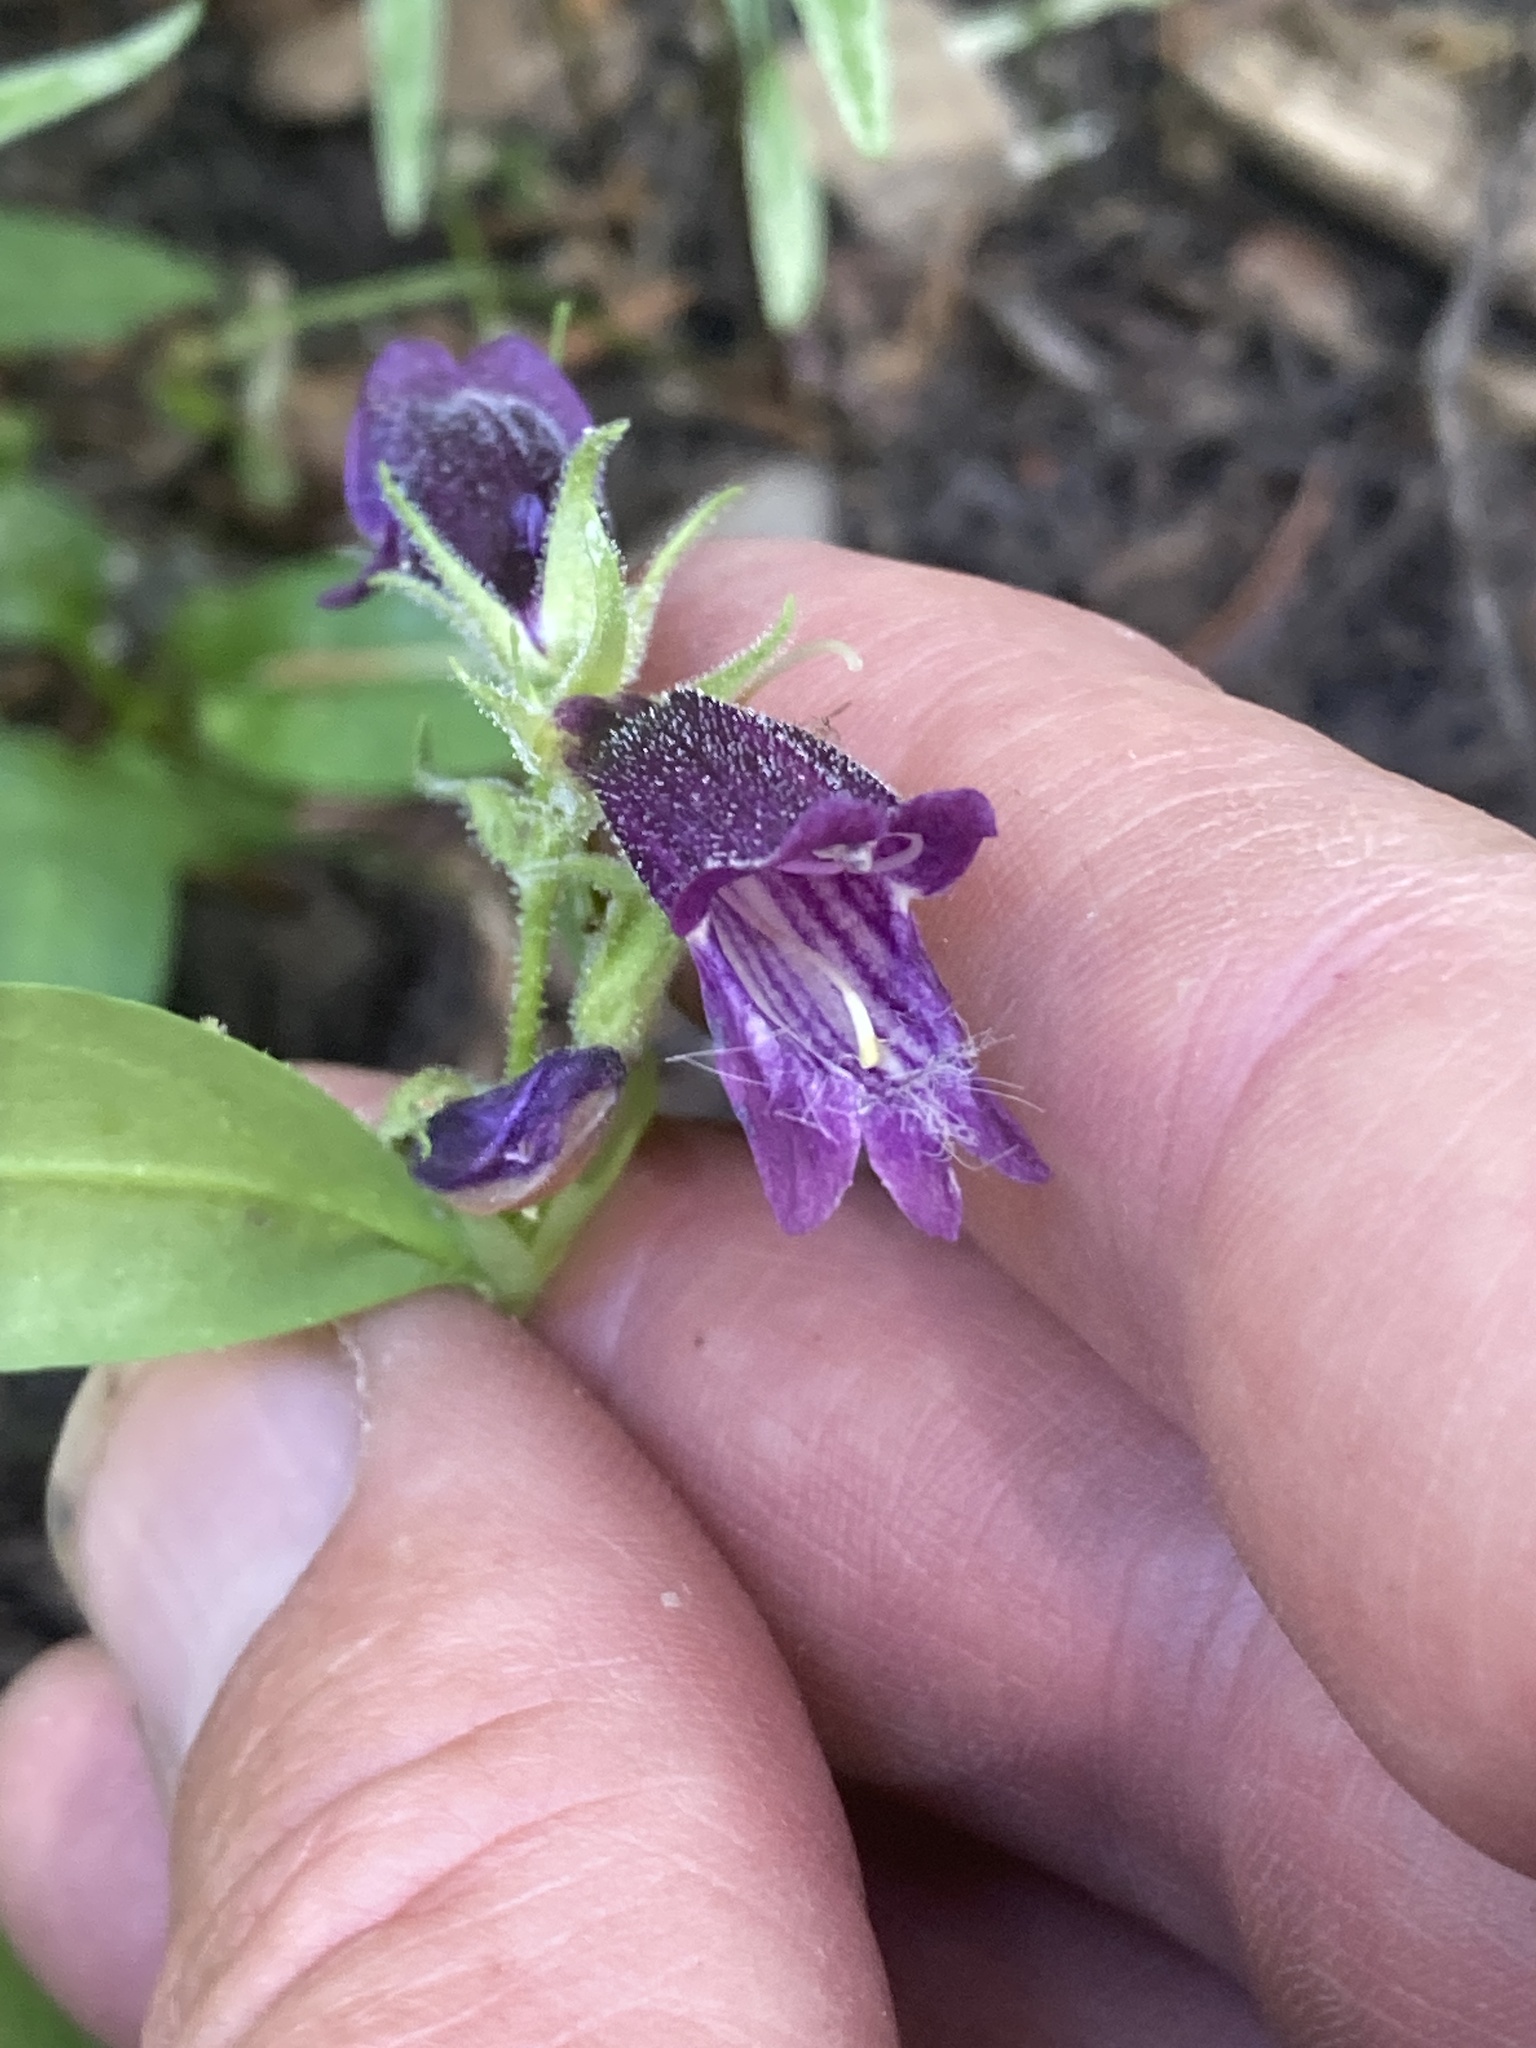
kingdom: Plantae
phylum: Tracheophyta
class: Magnoliopsida
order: Lamiales
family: Plantaginaceae
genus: Penstemon
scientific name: Penstemon whippleanus
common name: Whipple's penstemon
